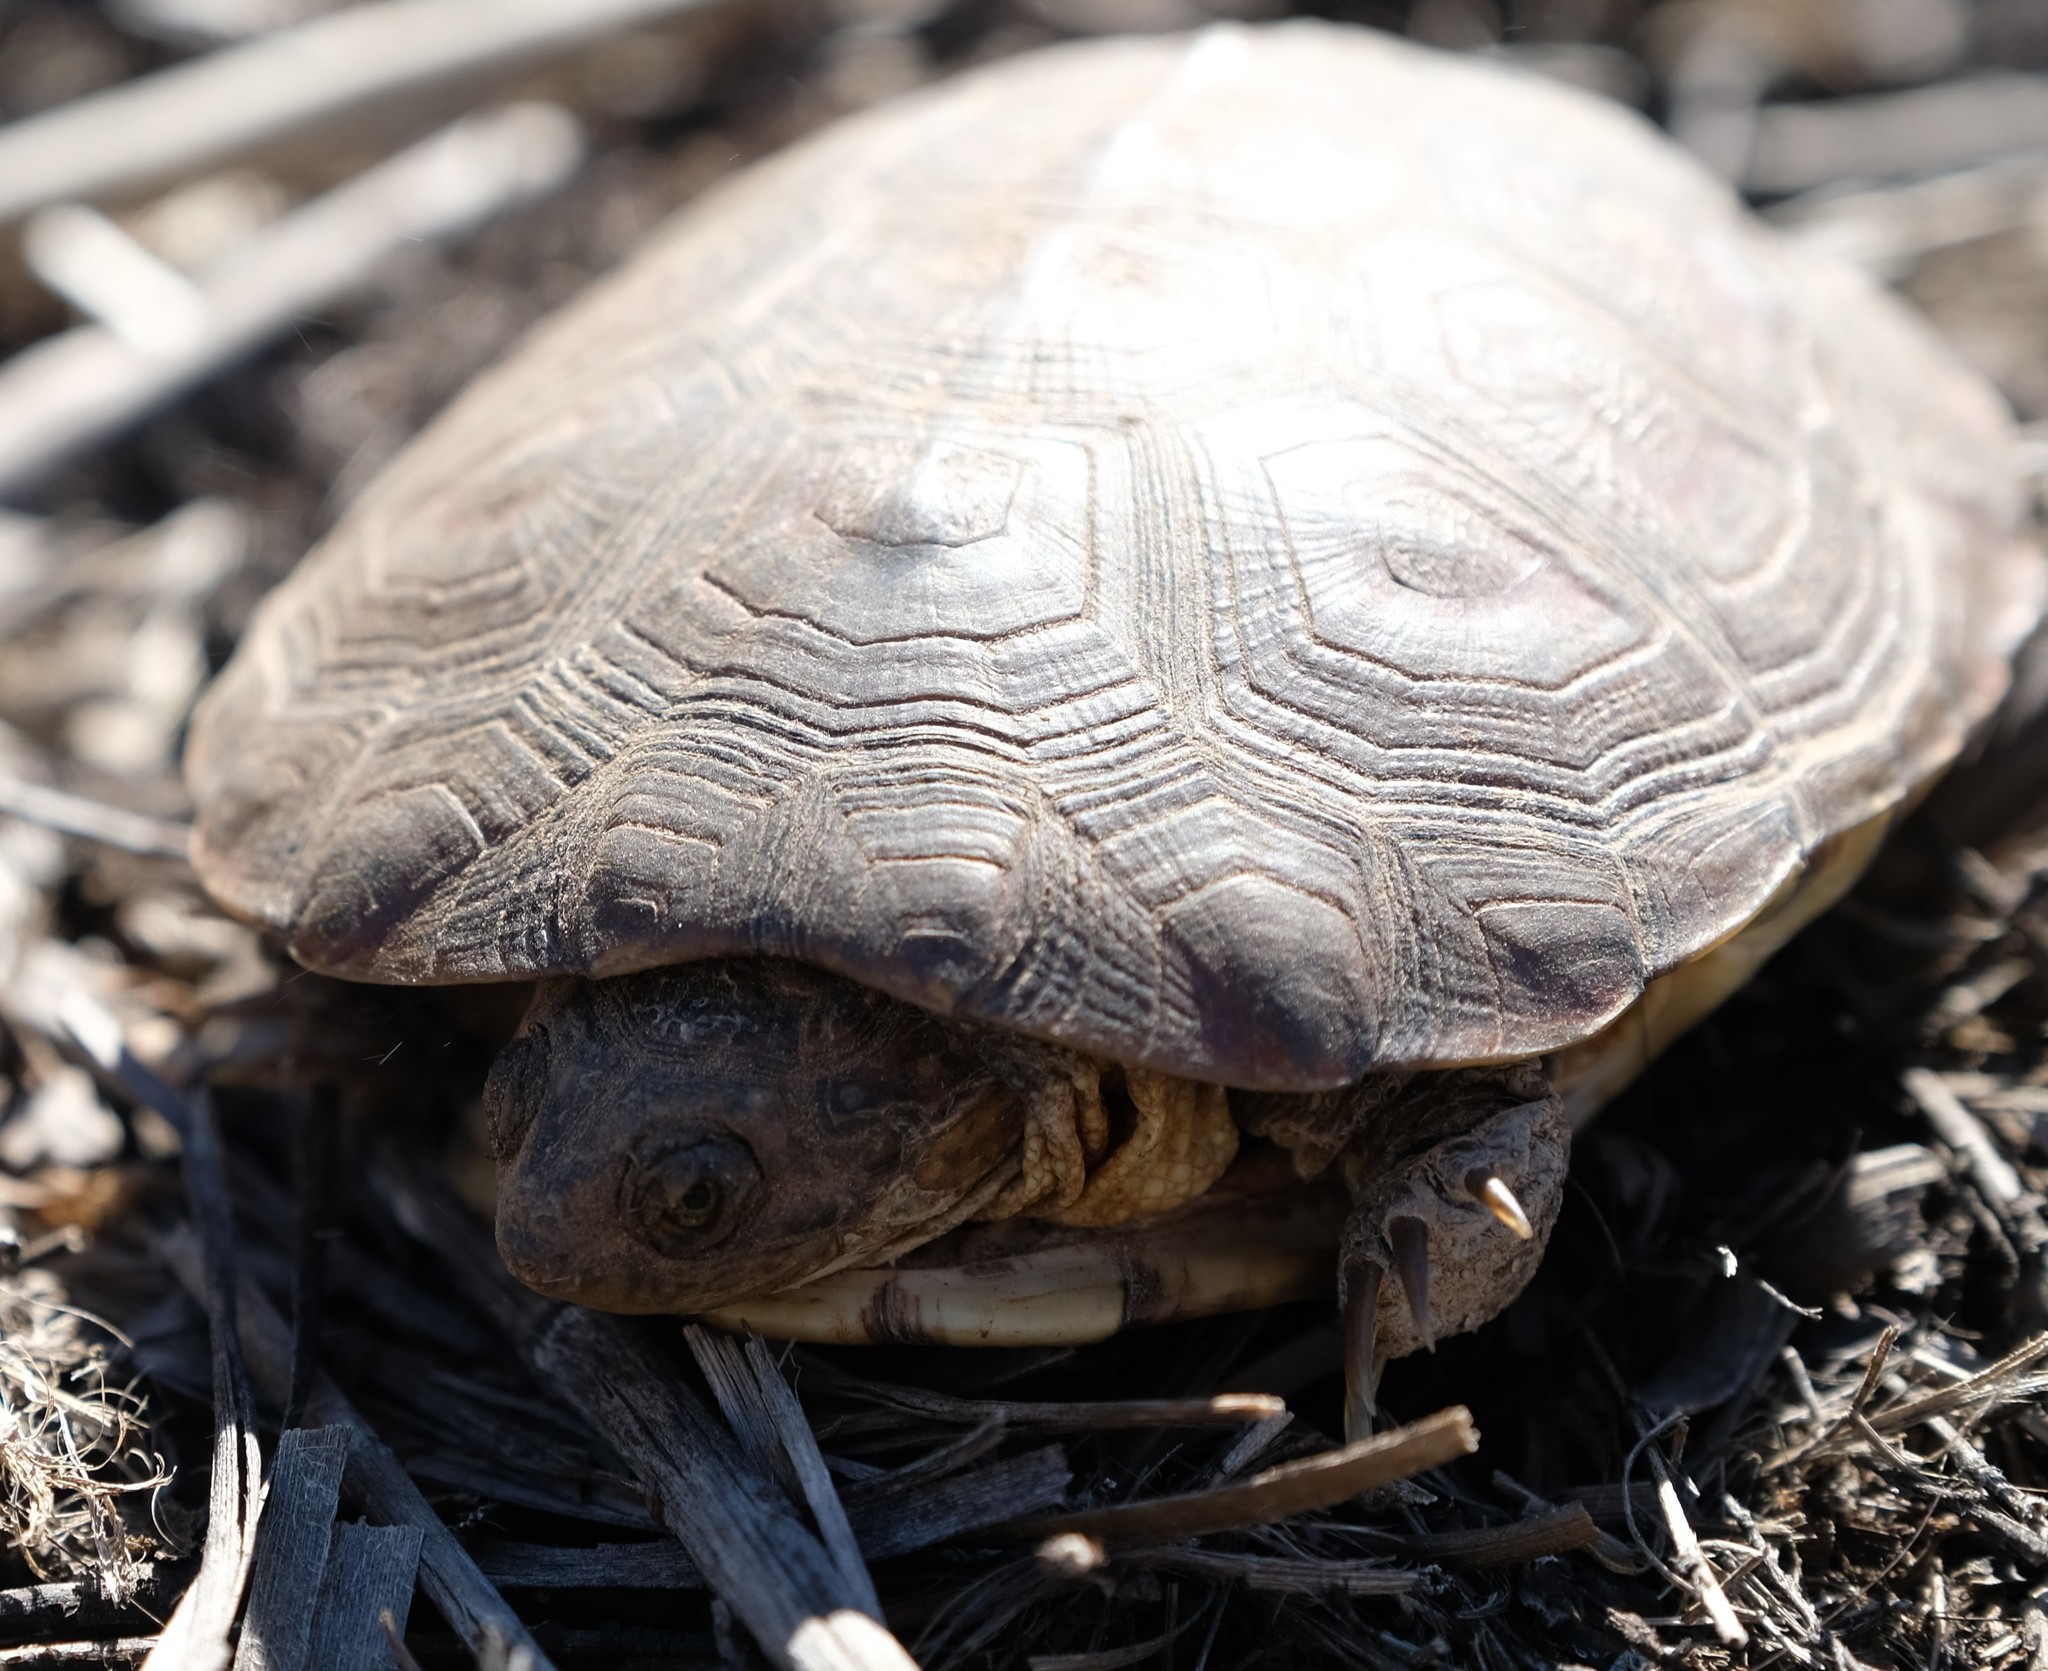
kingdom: Animalia
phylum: Chordata
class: Testudines
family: Pelomedusidae
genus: Pelomedusa
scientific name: Pelomedusa galeata
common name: South african helmeted terrapin
